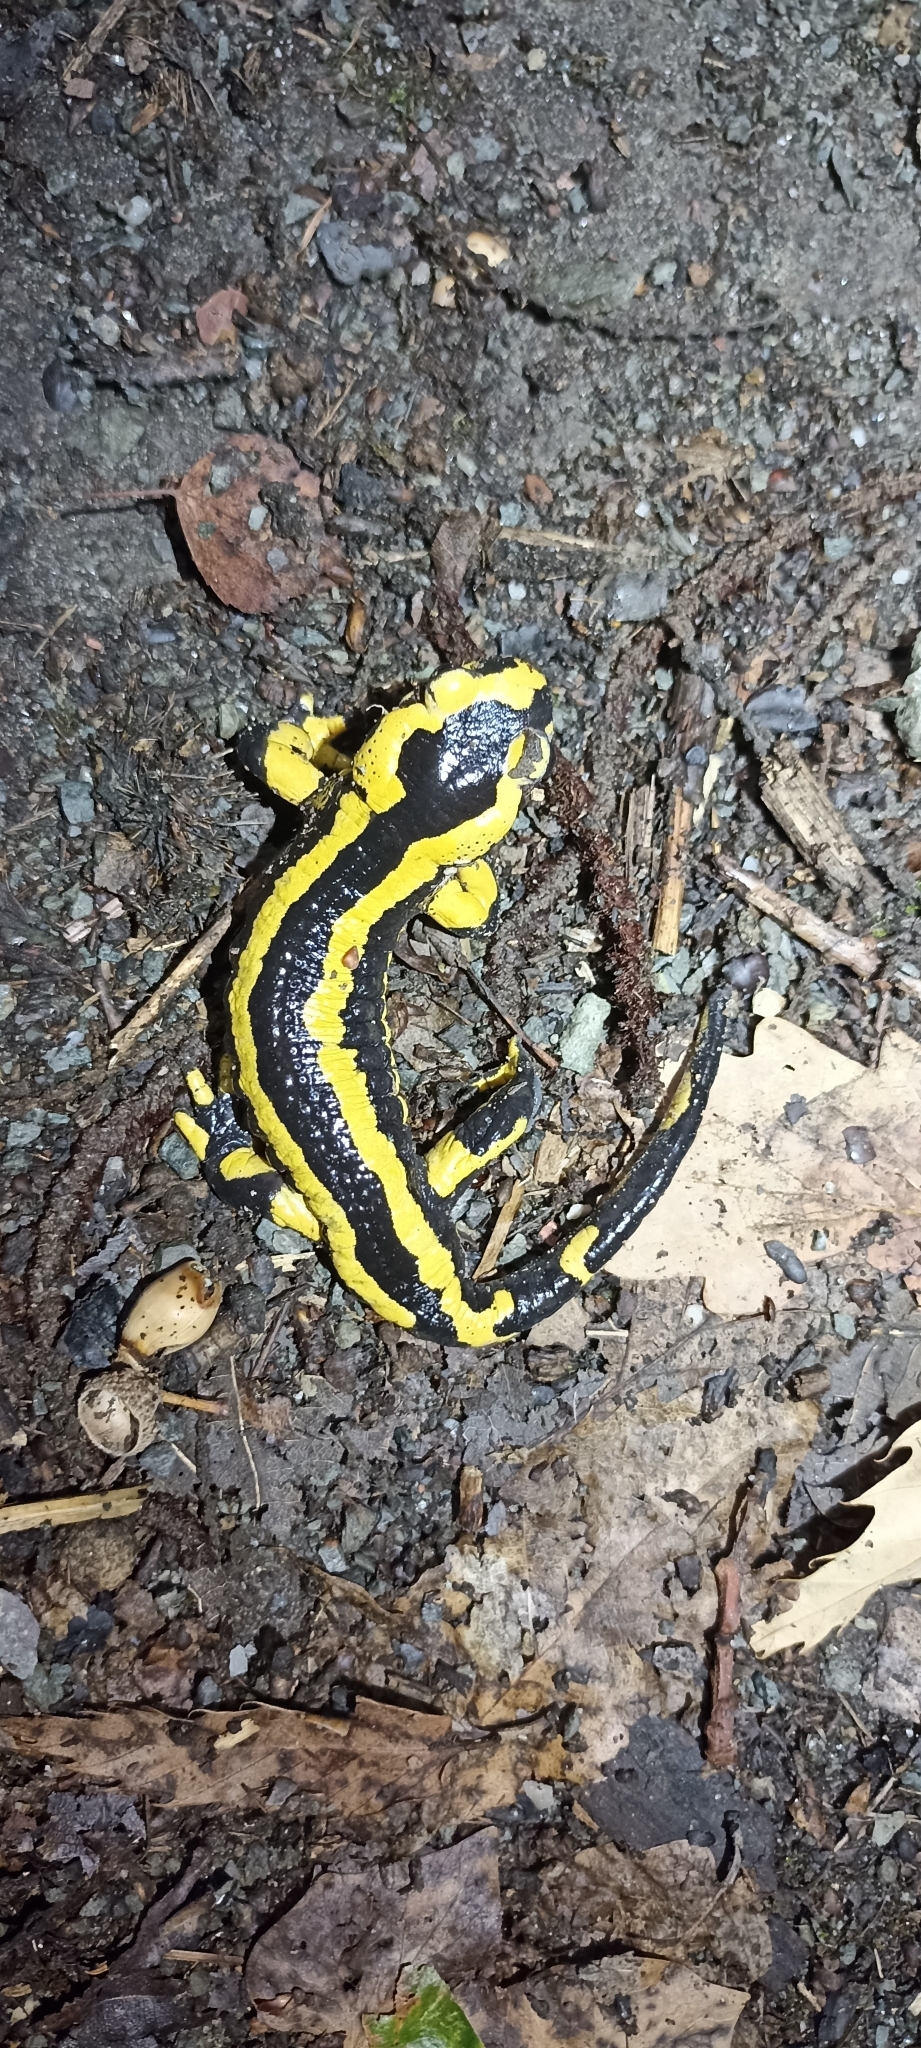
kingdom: Animalia
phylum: Chordata
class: Amphibia
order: Caudata
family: Salamandridae
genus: Salamandra
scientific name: Salamandra salamandra
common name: Fire salamander
